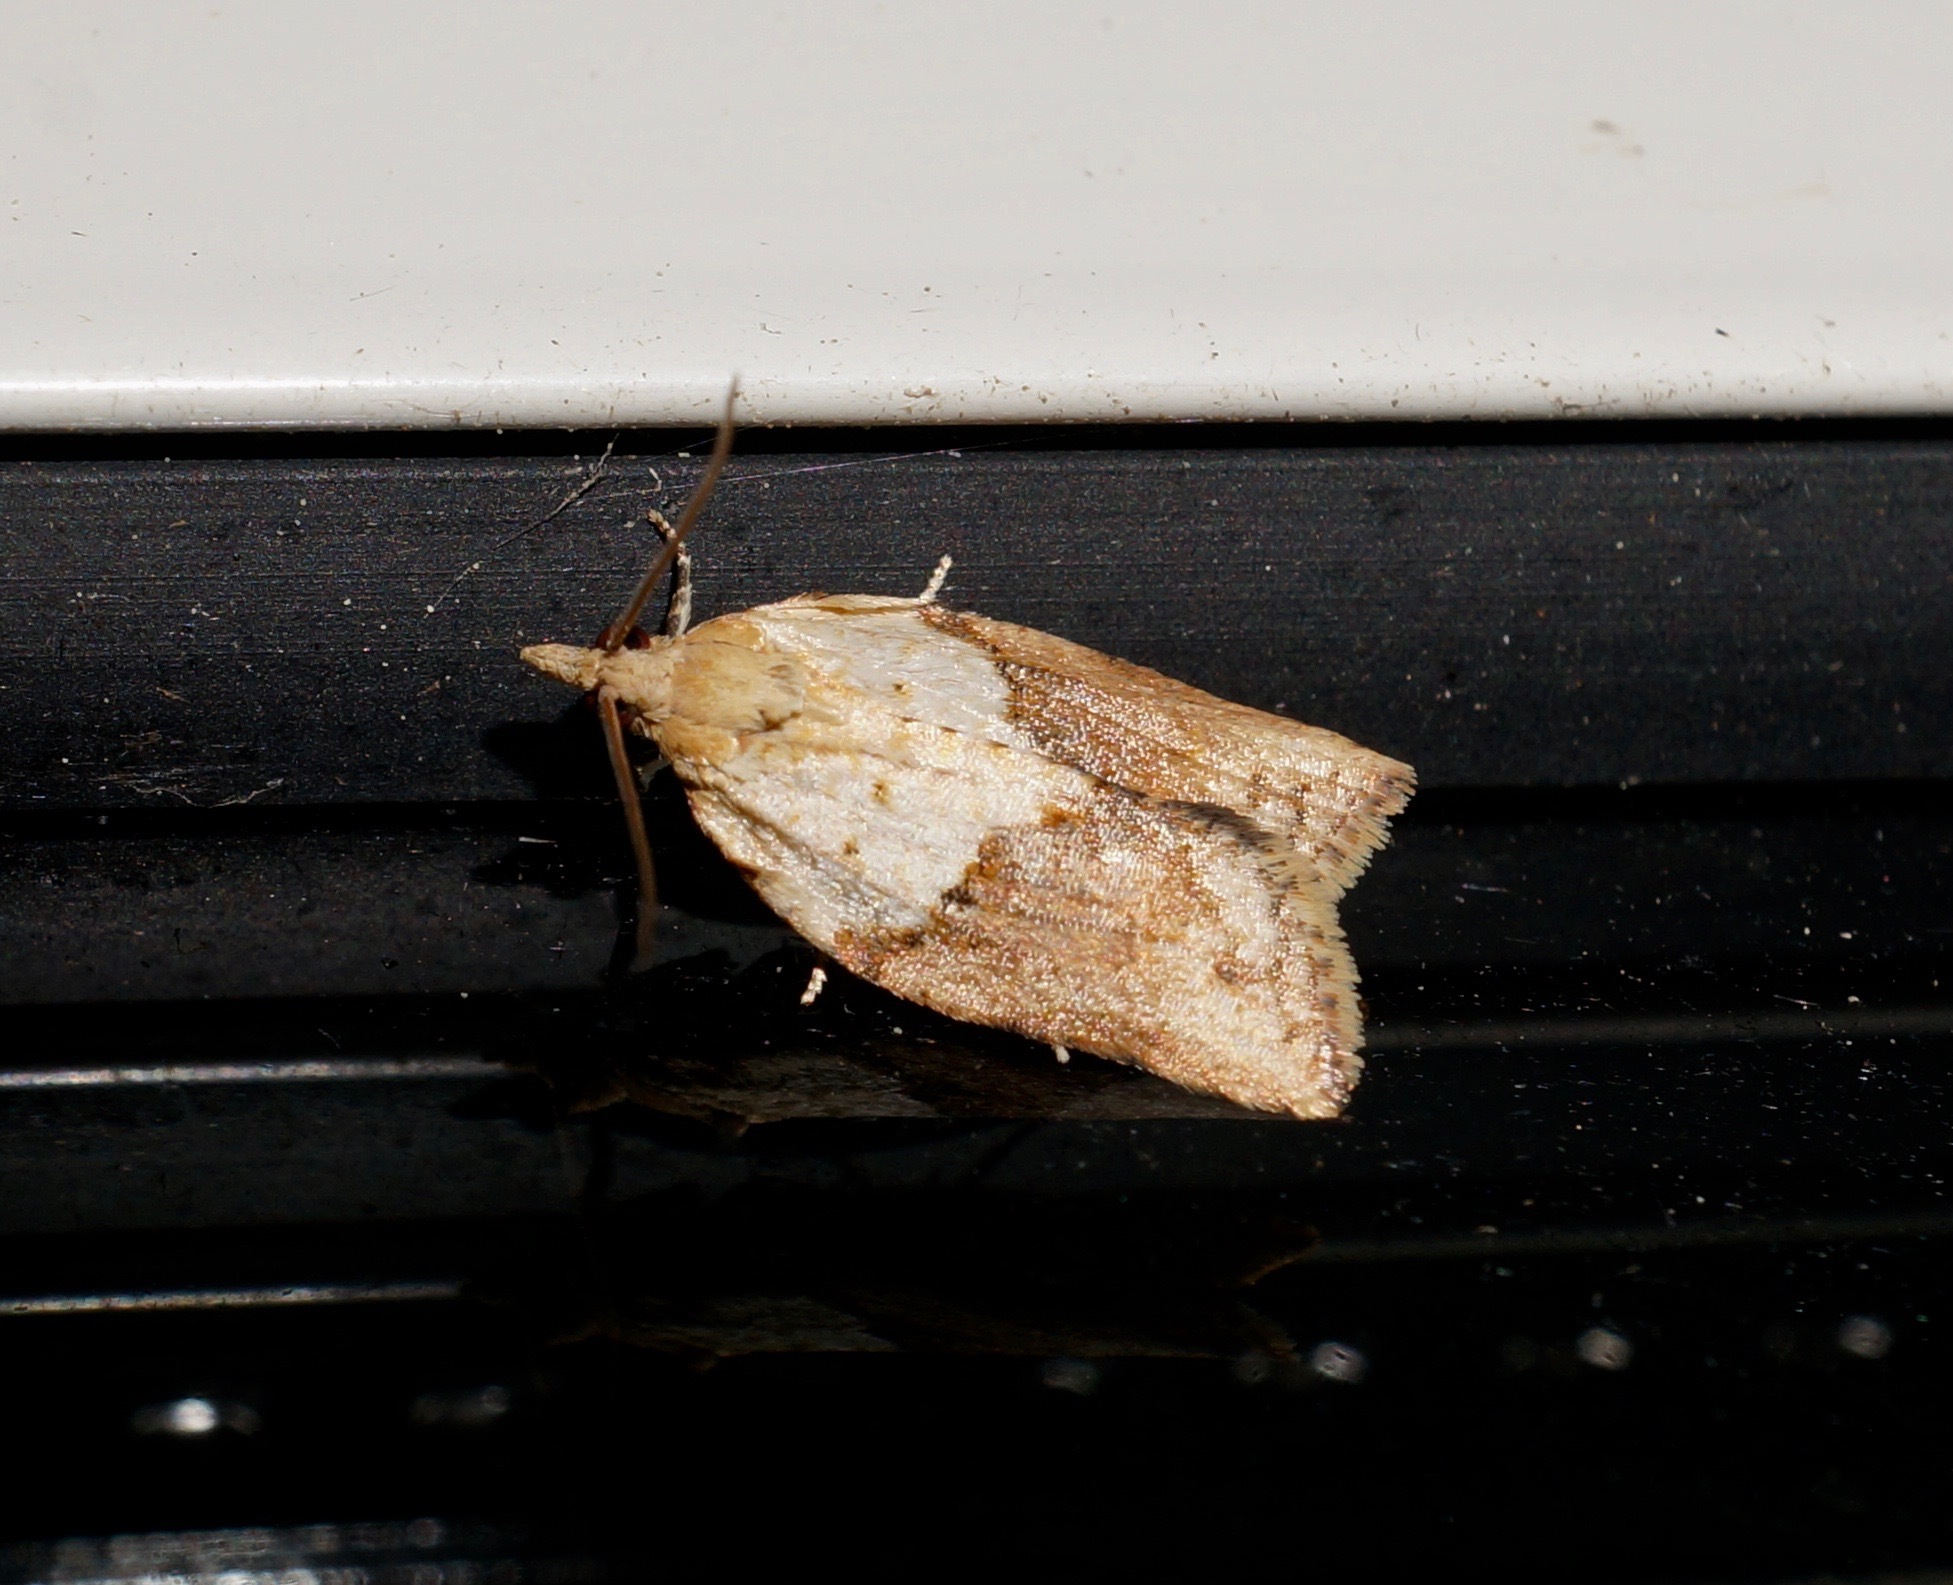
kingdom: Animalia
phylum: Arthropoda
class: Insecta
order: Lepidoptera
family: Tortricidae
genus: Epiphyas
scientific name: Epiphyas postvittana
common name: Light brown apple moth
